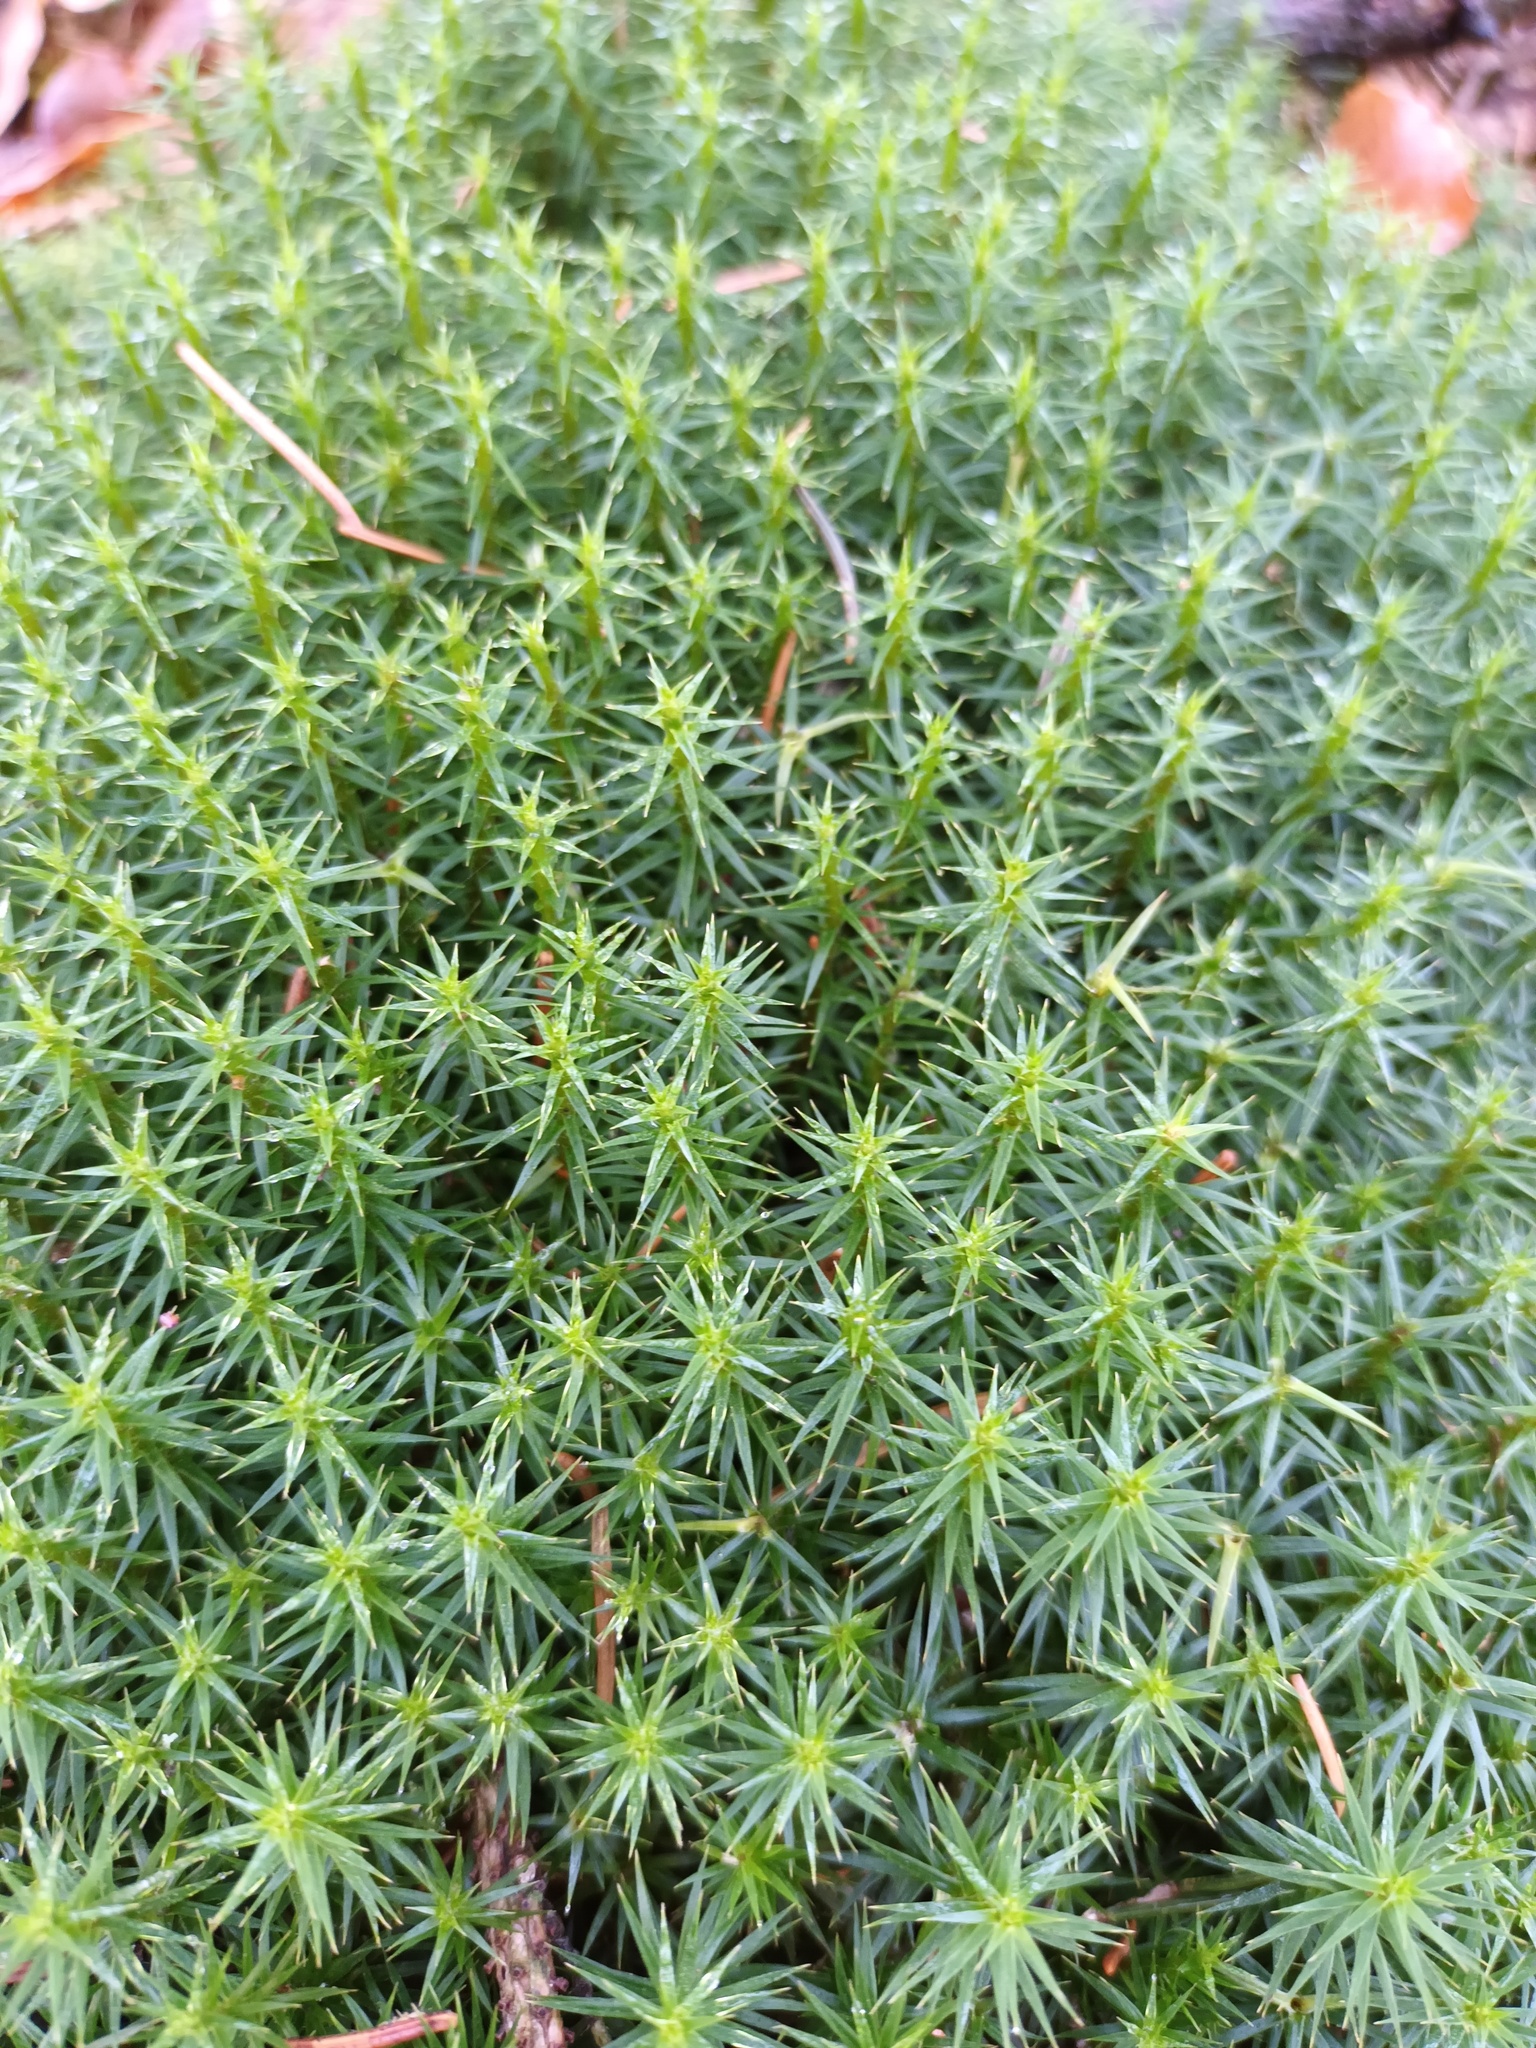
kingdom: Plantae
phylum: Bryophyta
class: Polytrichopsida
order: Polytrichales
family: Polytrichaceae
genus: Polytrichum
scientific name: Polytrichum formosum
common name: Bank haircap moss
